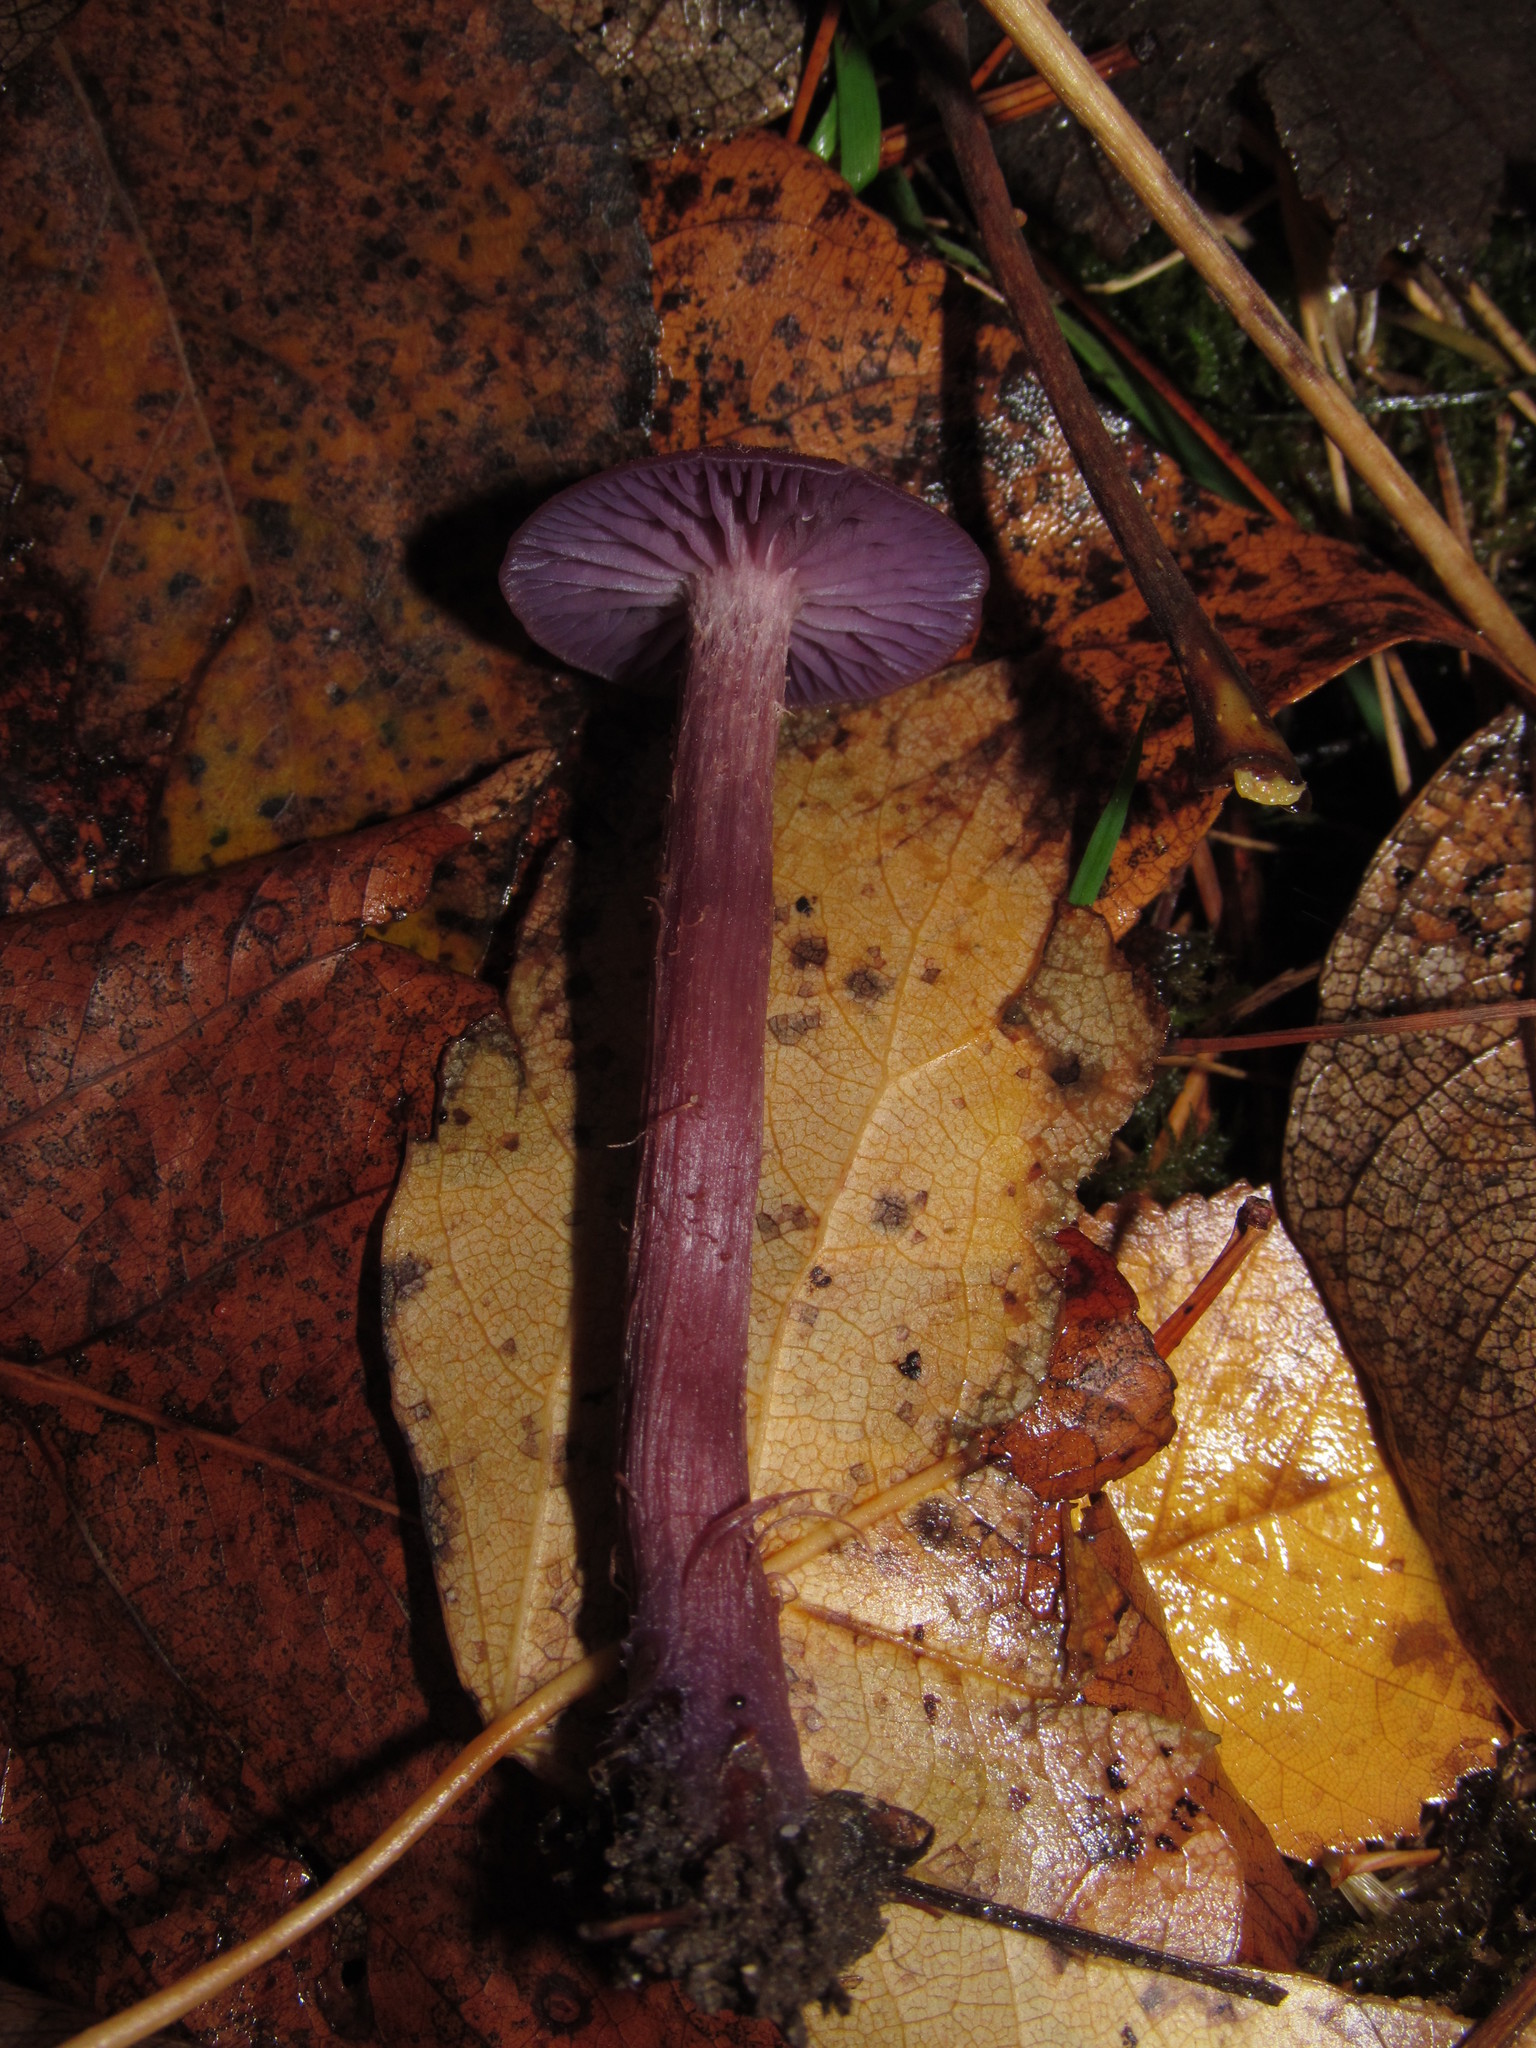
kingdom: Fungi
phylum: Basidiomycota
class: Agaricomycetes
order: Agaricales
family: Hydnangiaceae
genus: Laccaria
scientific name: Laccaria amethysteo-occidentalis
